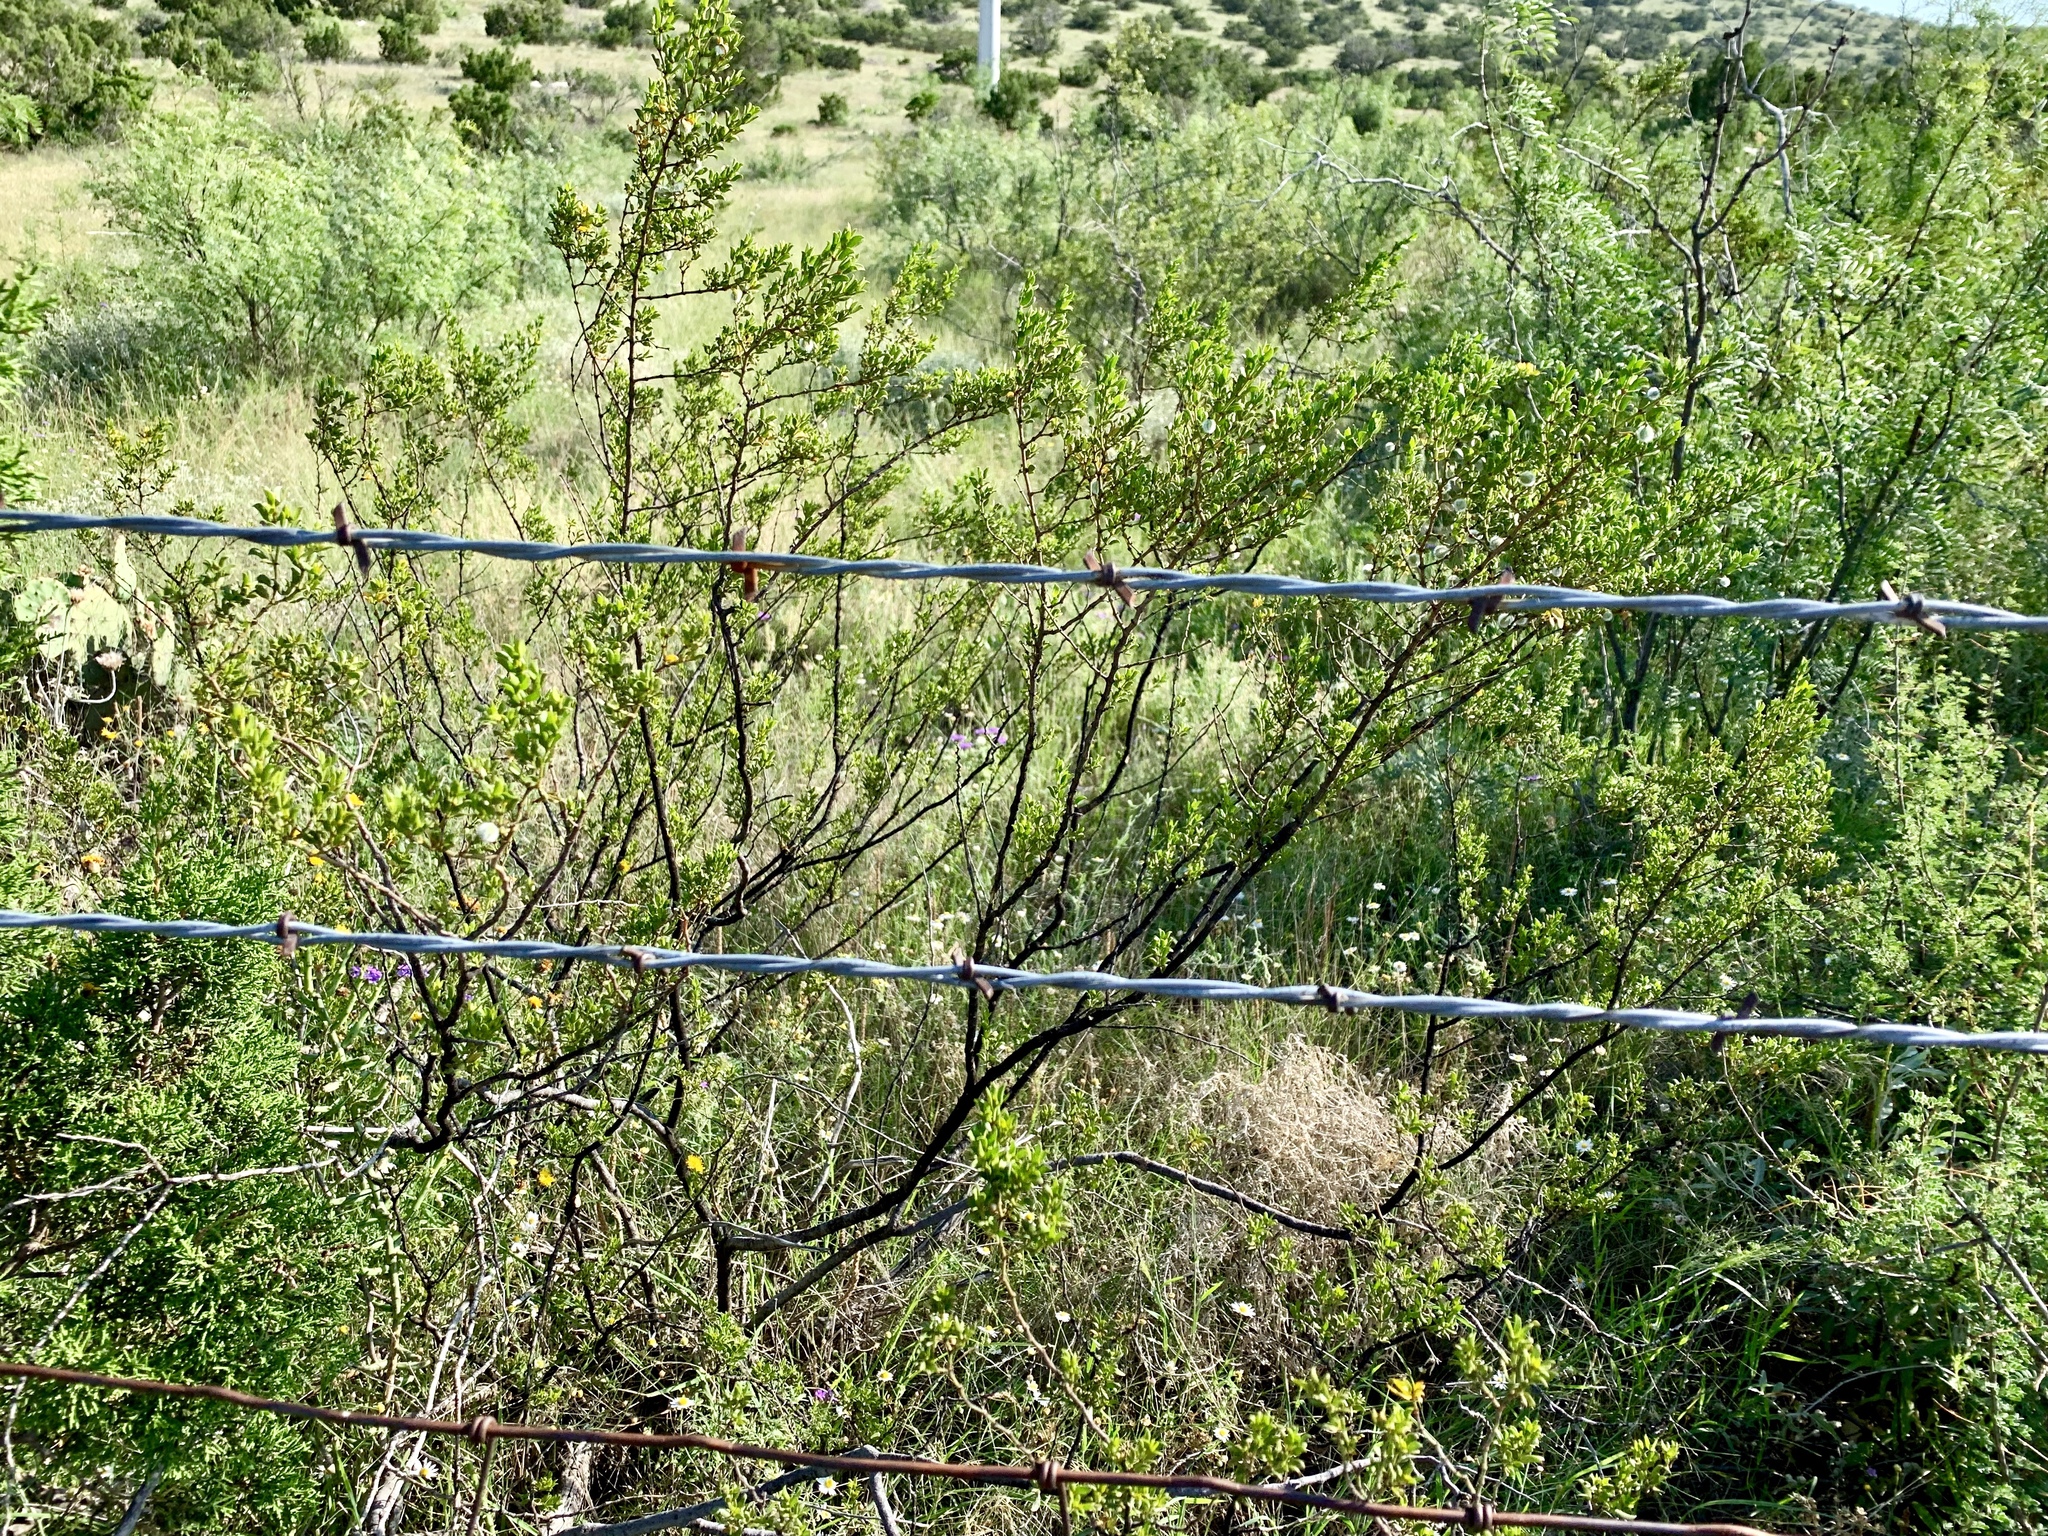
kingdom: Plantae
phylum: Tracheophyta
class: Magnoliopsida
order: Zygophyllales
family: Zygophyllaceae
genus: Larrea
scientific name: Larrea tridentata
